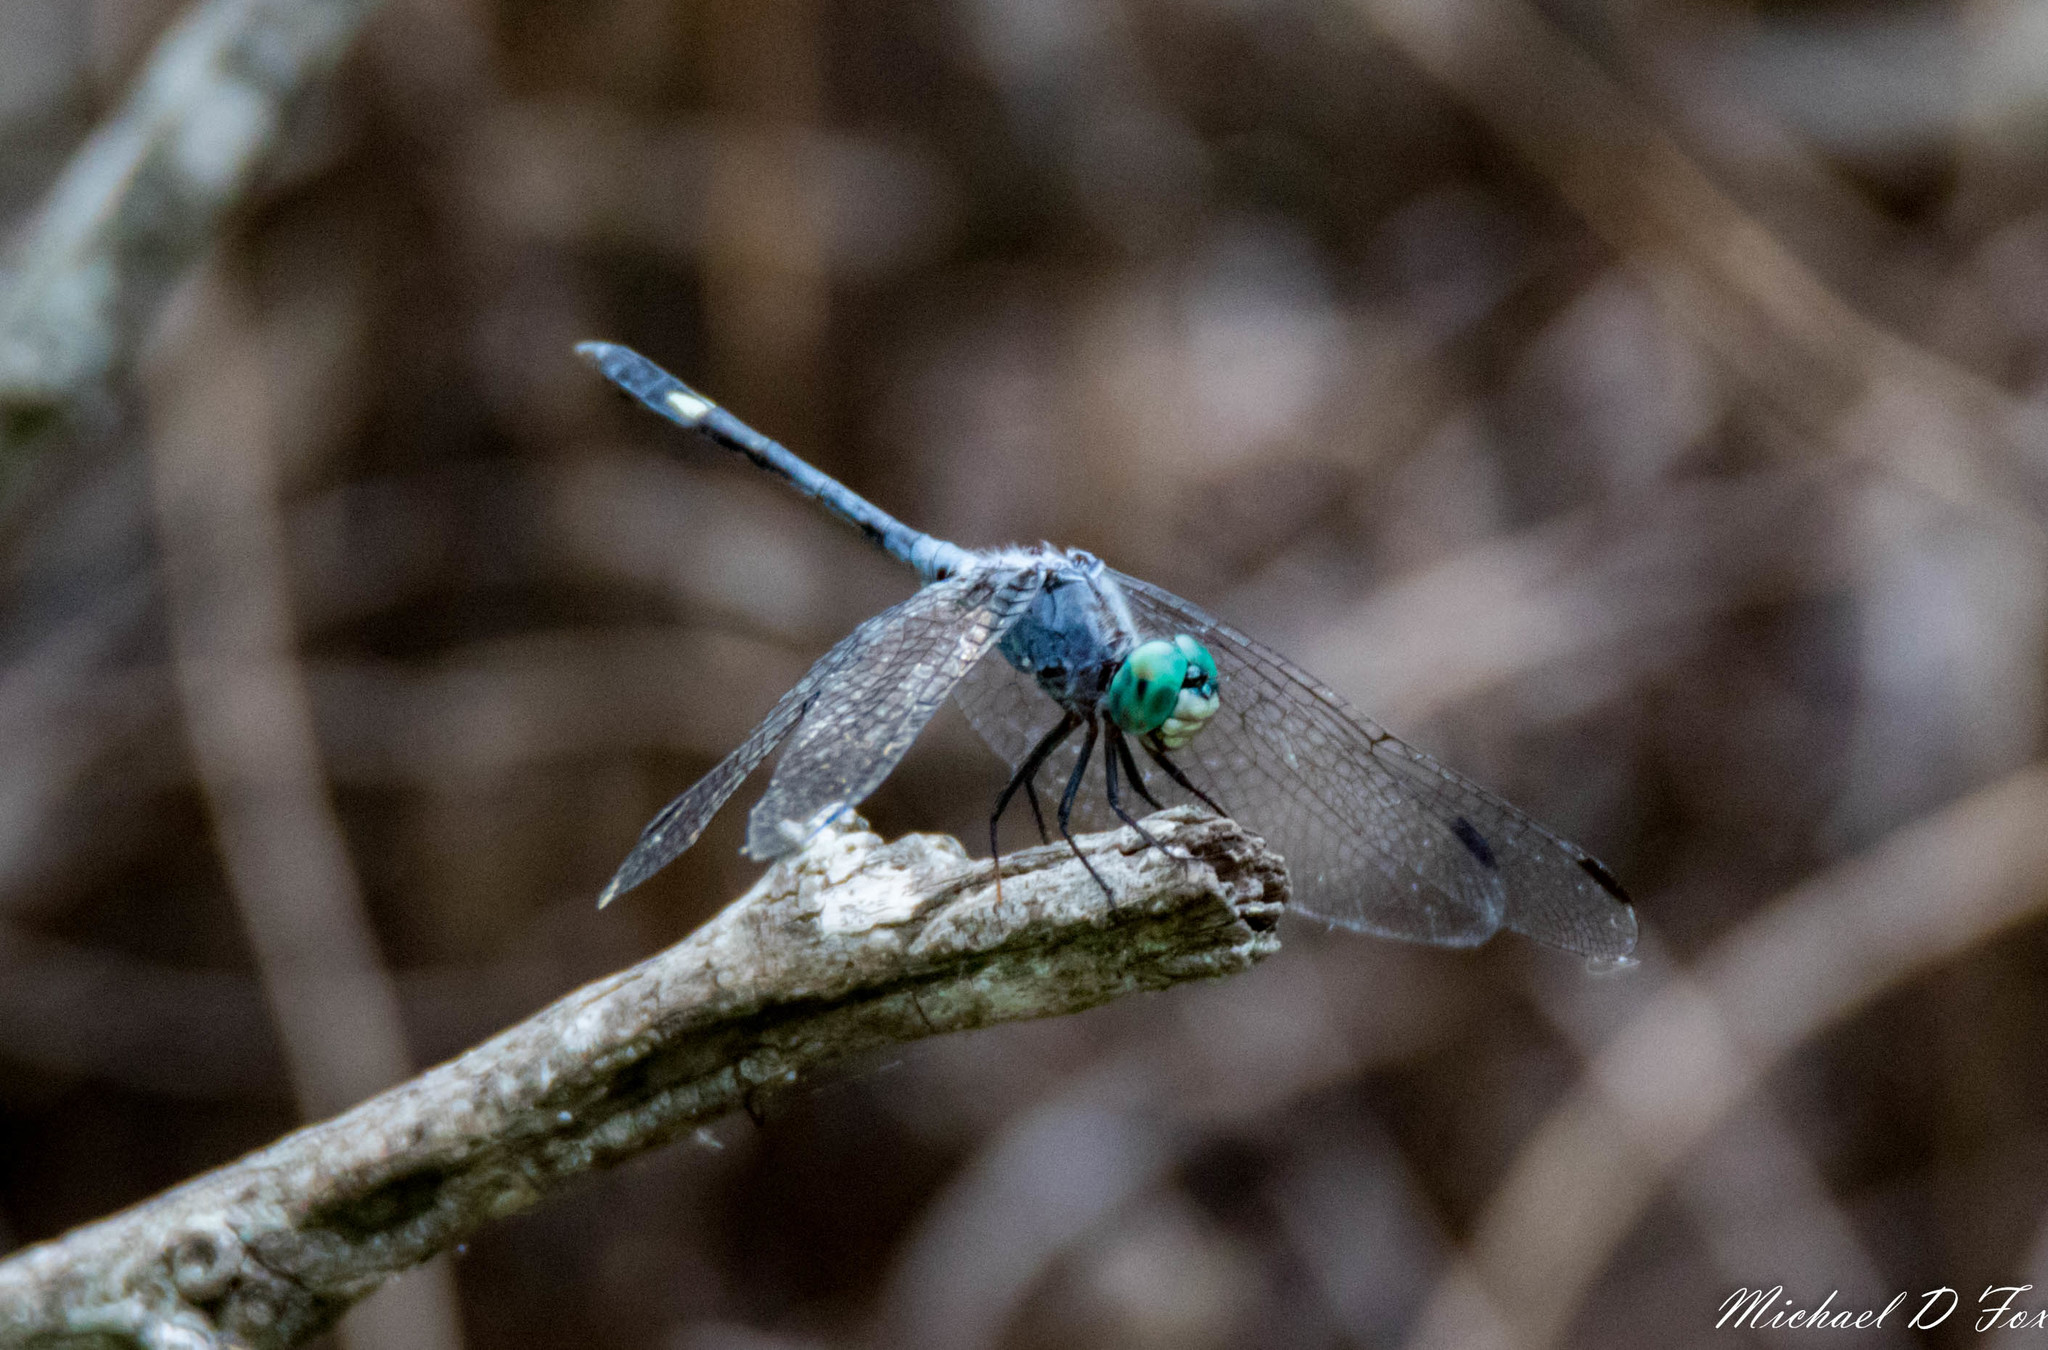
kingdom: Animalia
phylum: Arthropoda
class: Insecta
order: Odonata
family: Libellulidae
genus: Micrathyria
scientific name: Micrathyria aequalis
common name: Spot-tailed dasher
